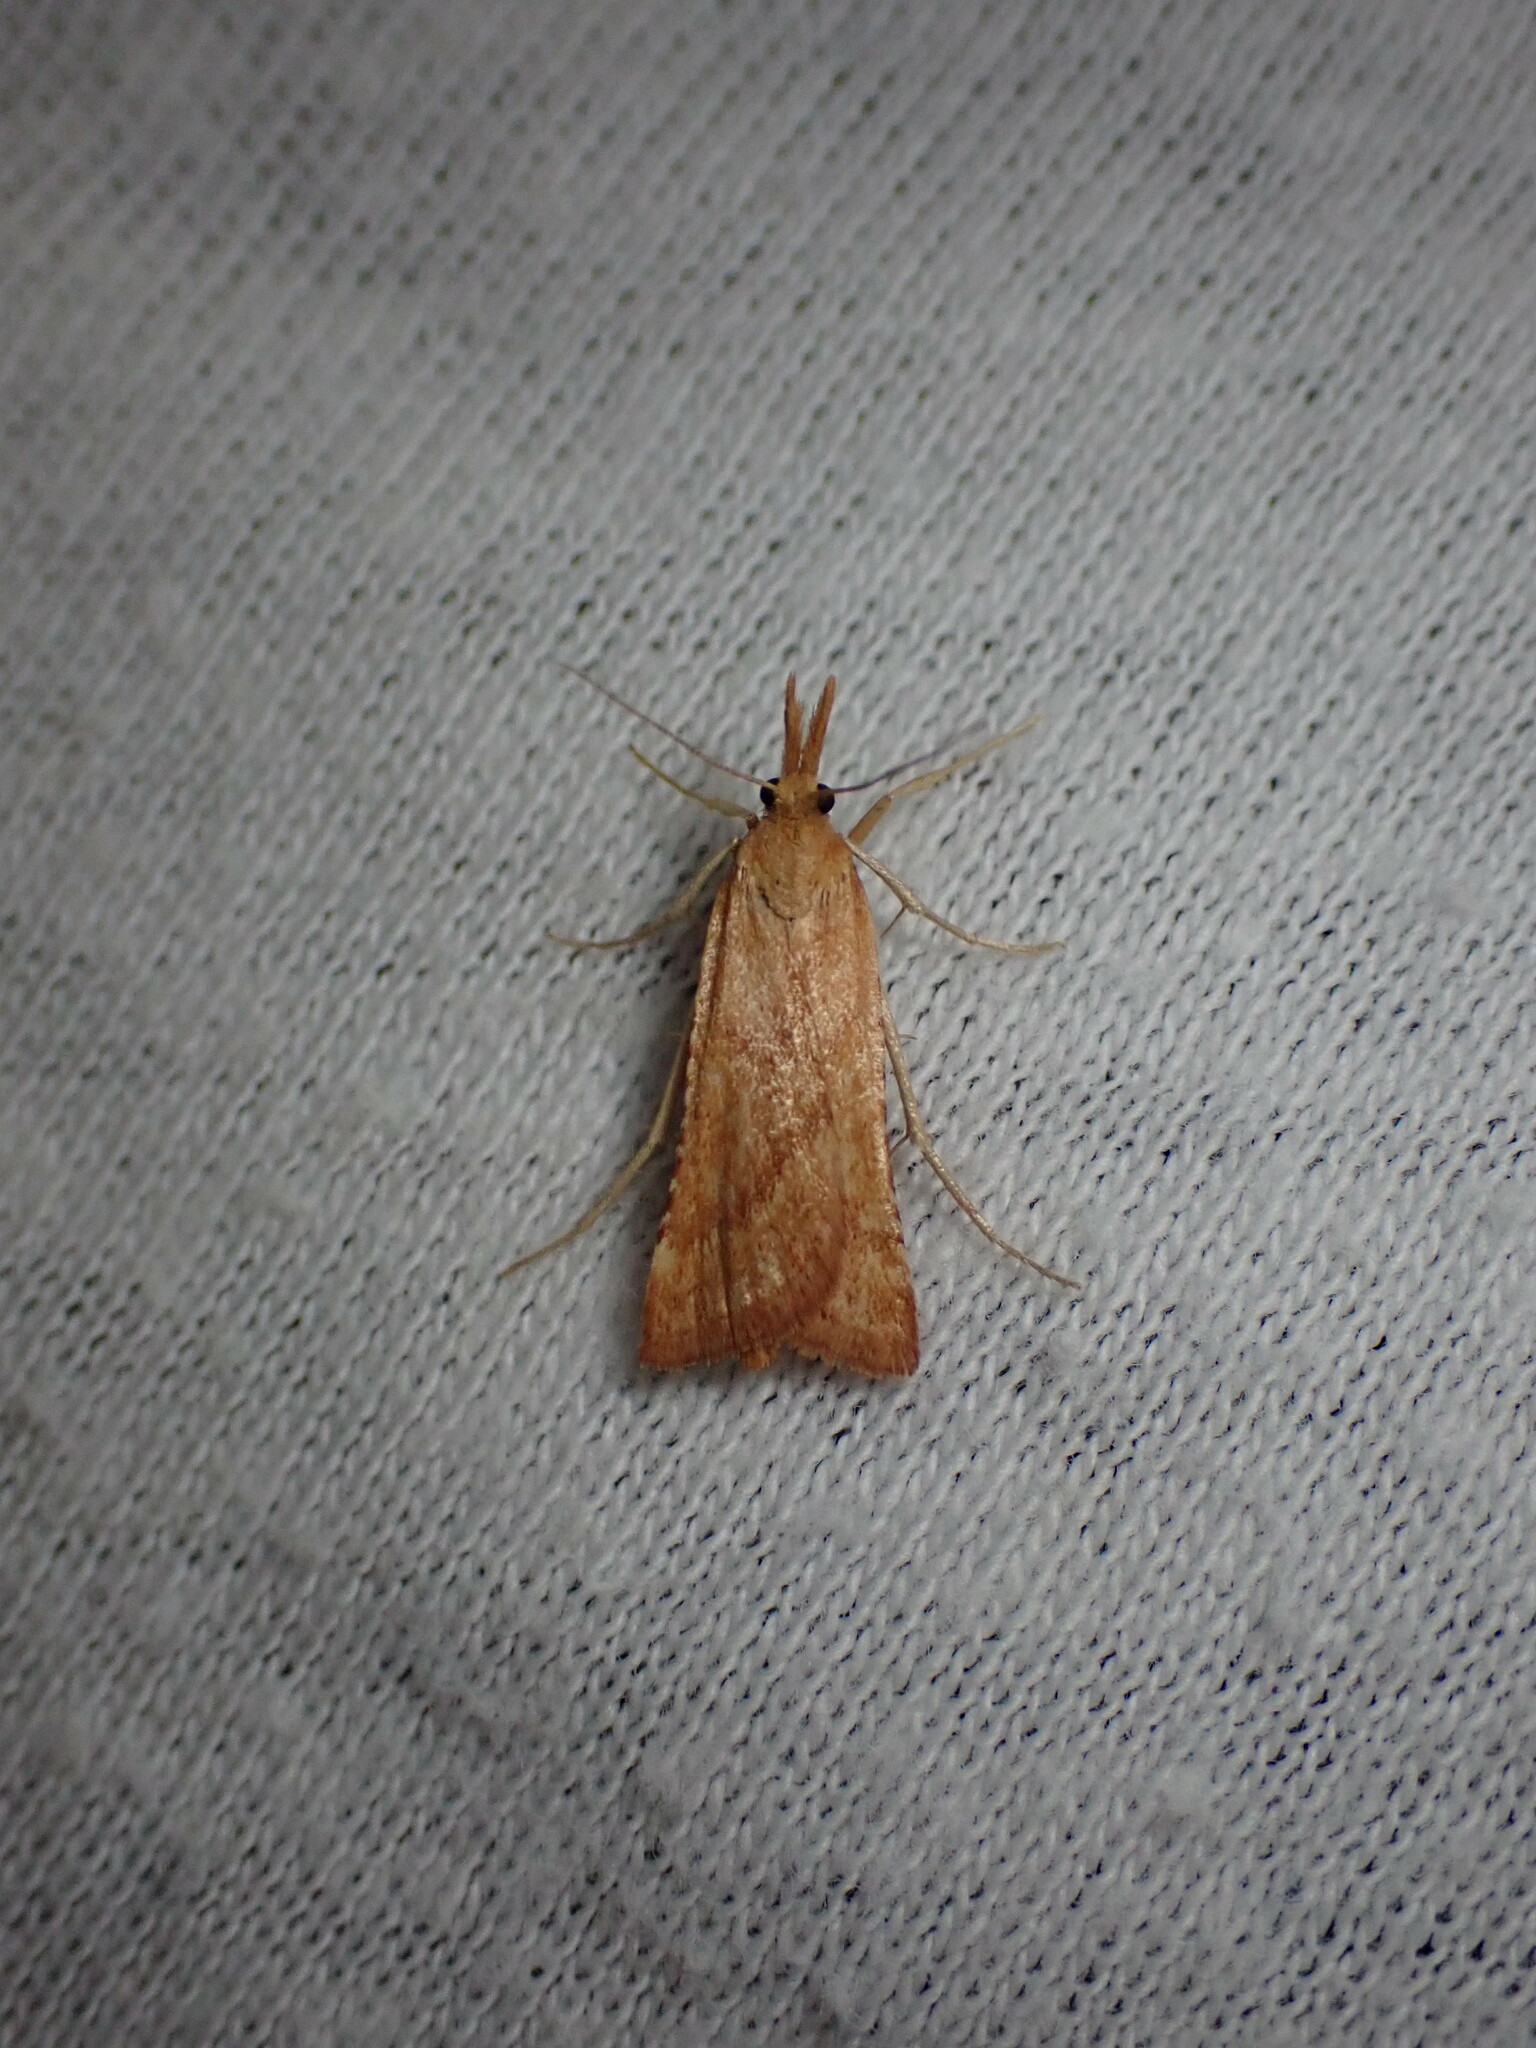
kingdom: Animalia
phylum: Arthropoda
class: Insecta
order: Lepidoptera
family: Pyralidae
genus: Synaphe
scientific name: Synaphe punctalis
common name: Long-legged tabby
